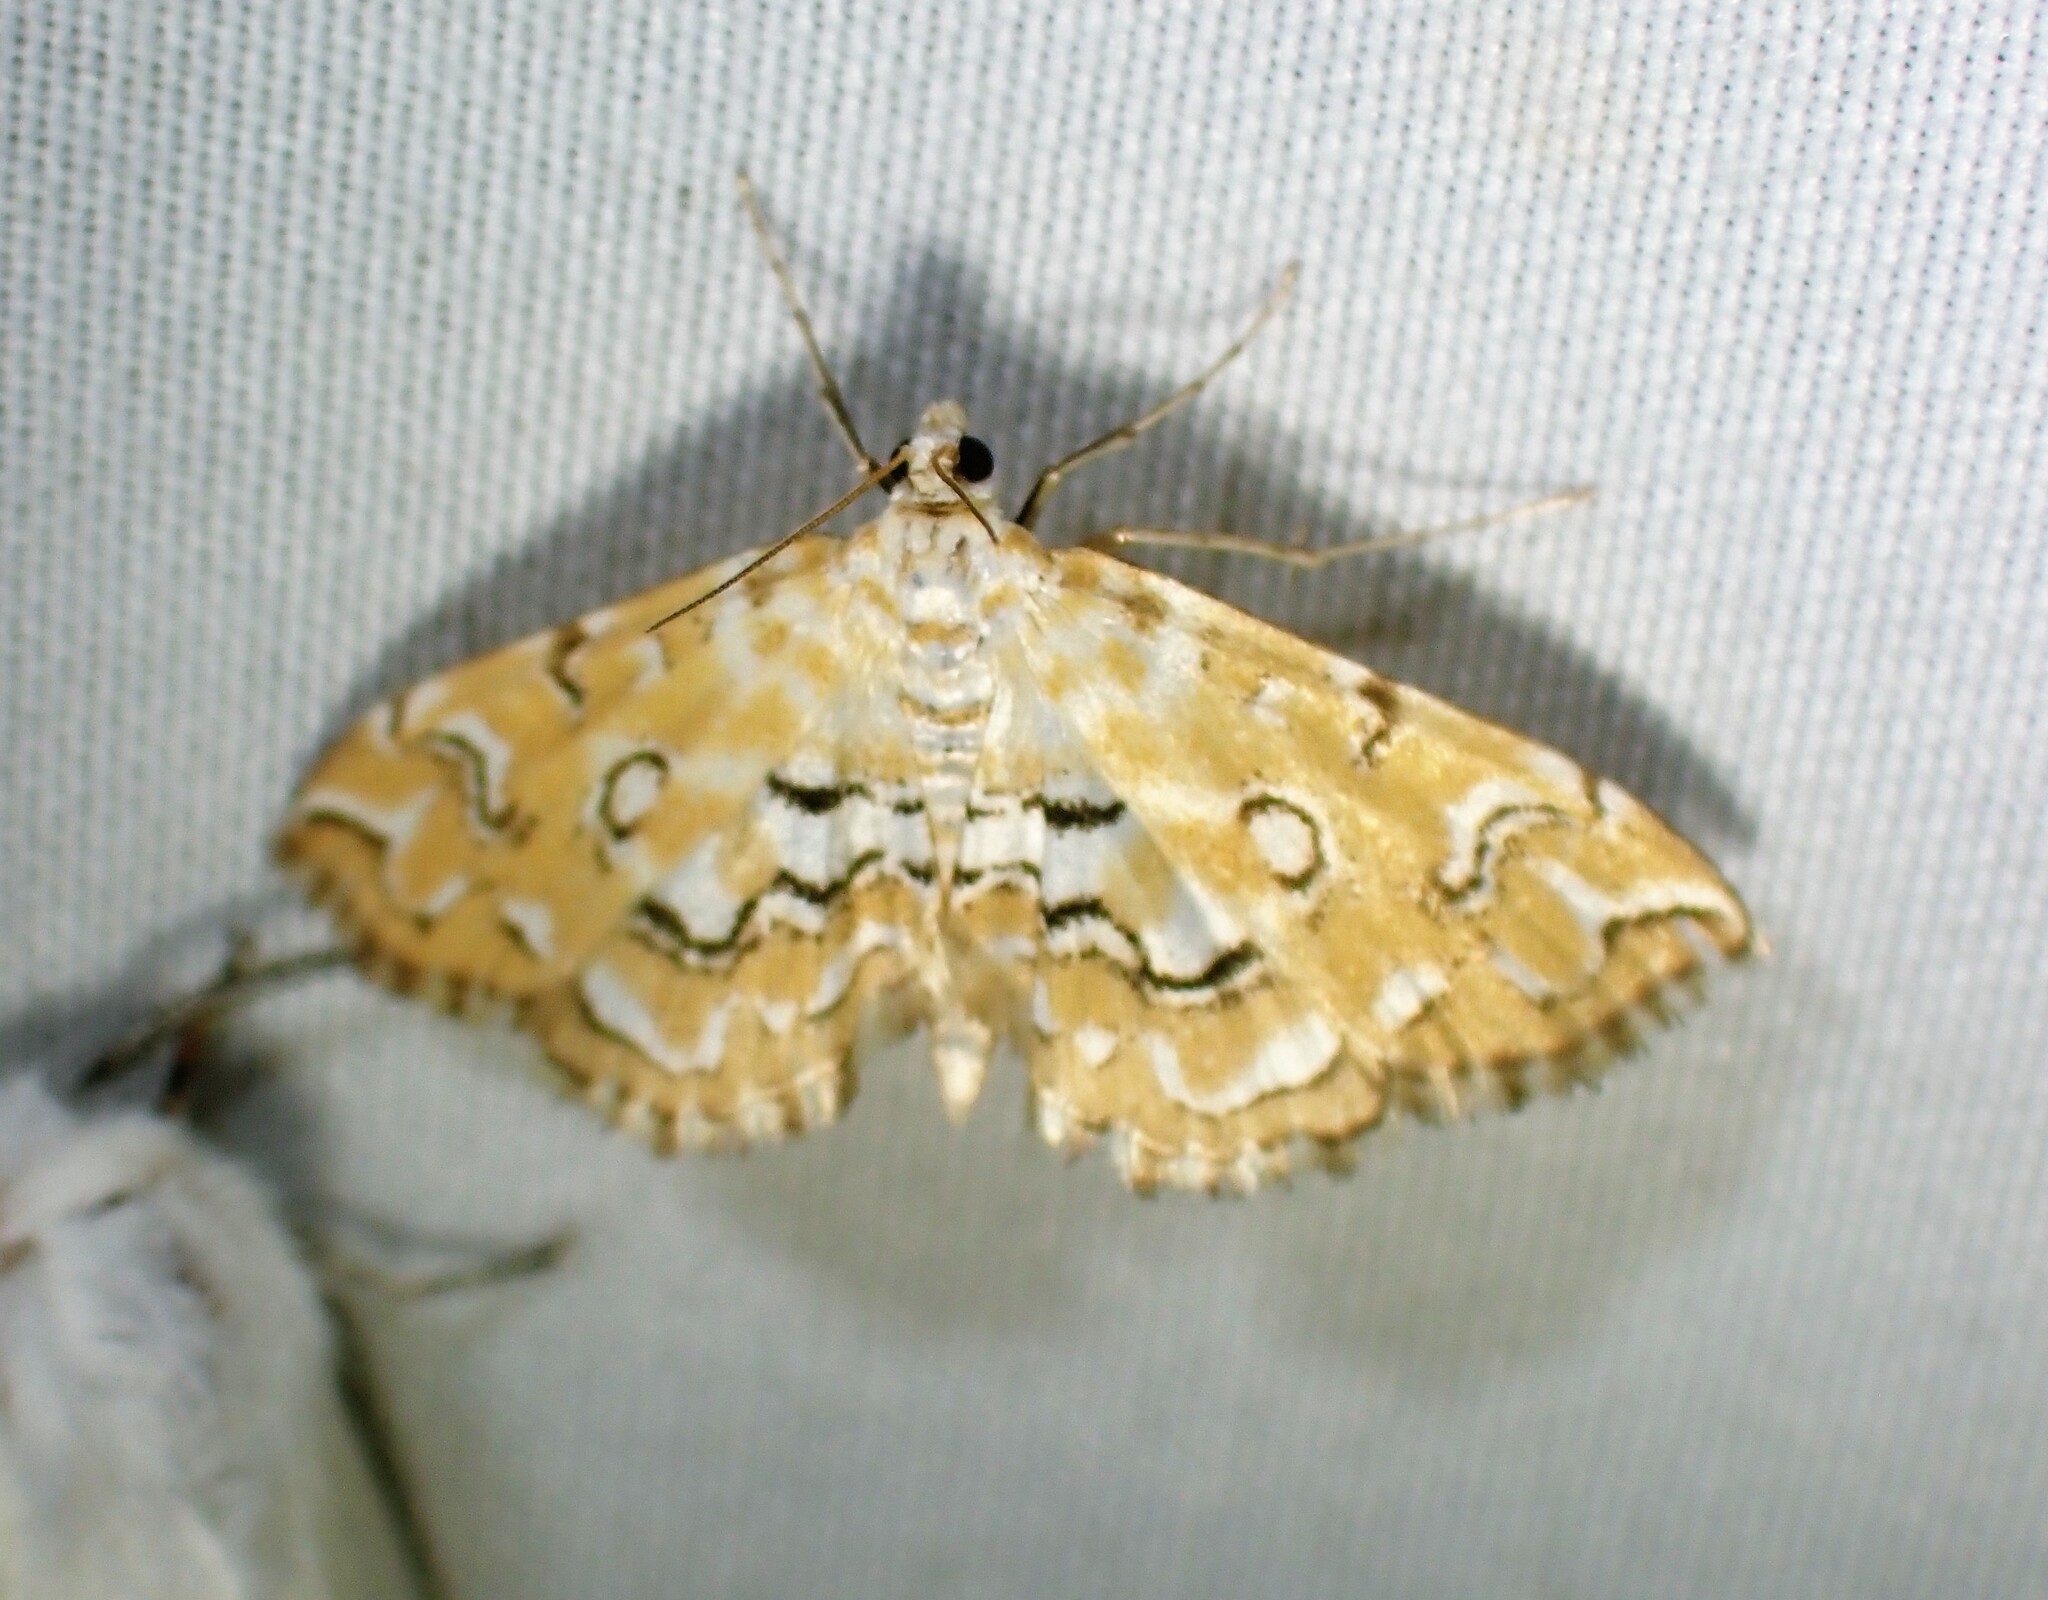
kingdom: Animalia
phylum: Arthropoda
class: Insecta
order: Lepidoptera
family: Crambidae
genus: Elophila
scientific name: Elophila icciusalis
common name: Pondside pyralid moth
